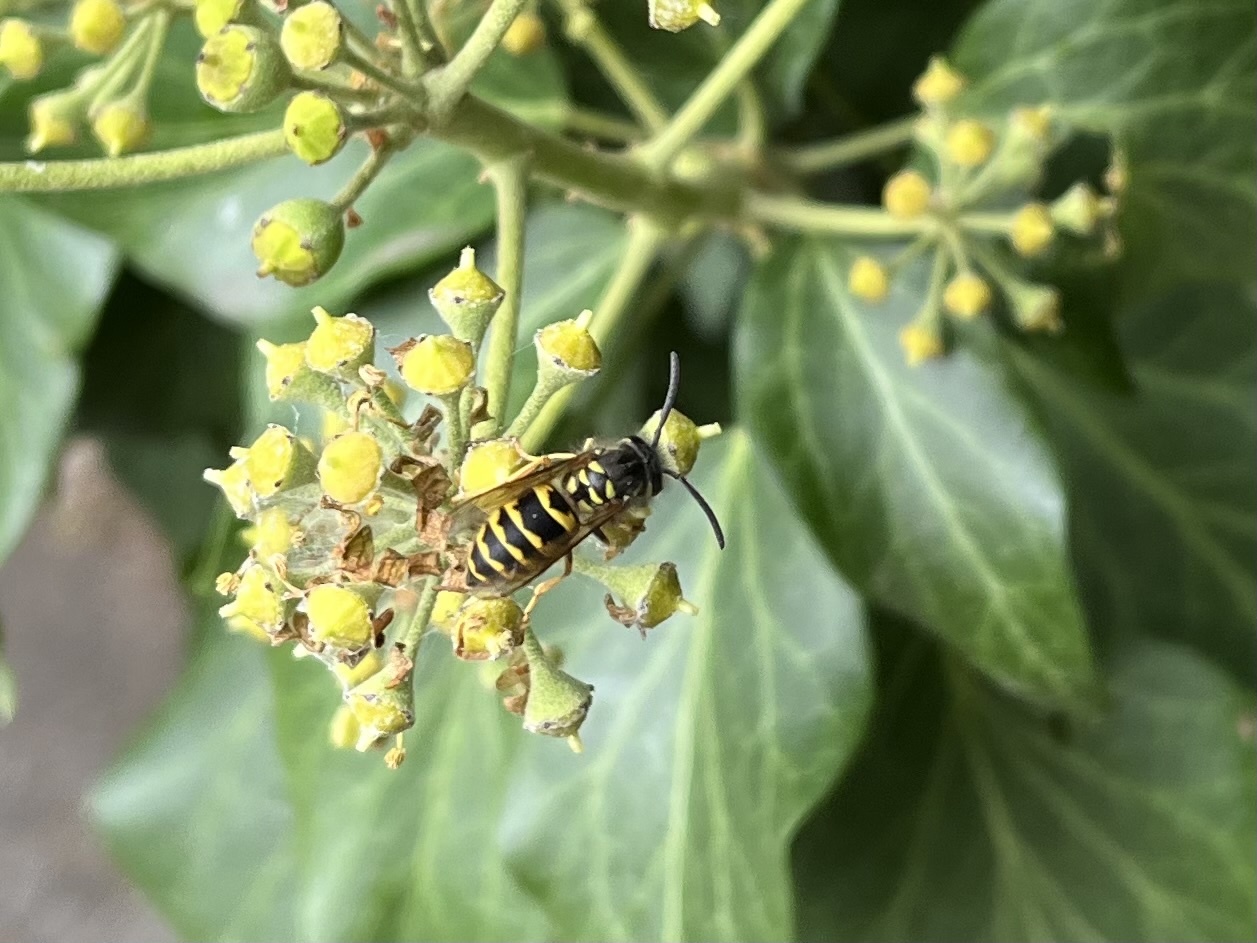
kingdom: Animalia
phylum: Arthropoda
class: Insecta
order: Hymenoptera
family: Vespidae
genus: Vespula
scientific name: Vespula vulgaris
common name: Common wasp
